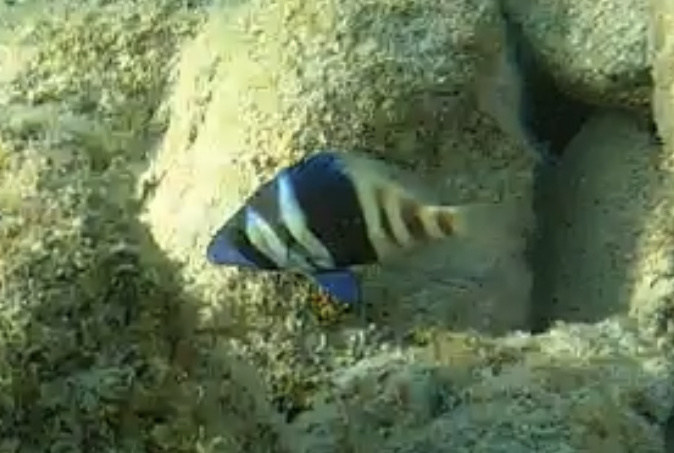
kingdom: Animalia
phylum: Chordata
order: Perciformes
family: Serranidae
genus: Hypoplectrus
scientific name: Hypoplectrus indigo
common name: Indigo hamlet
